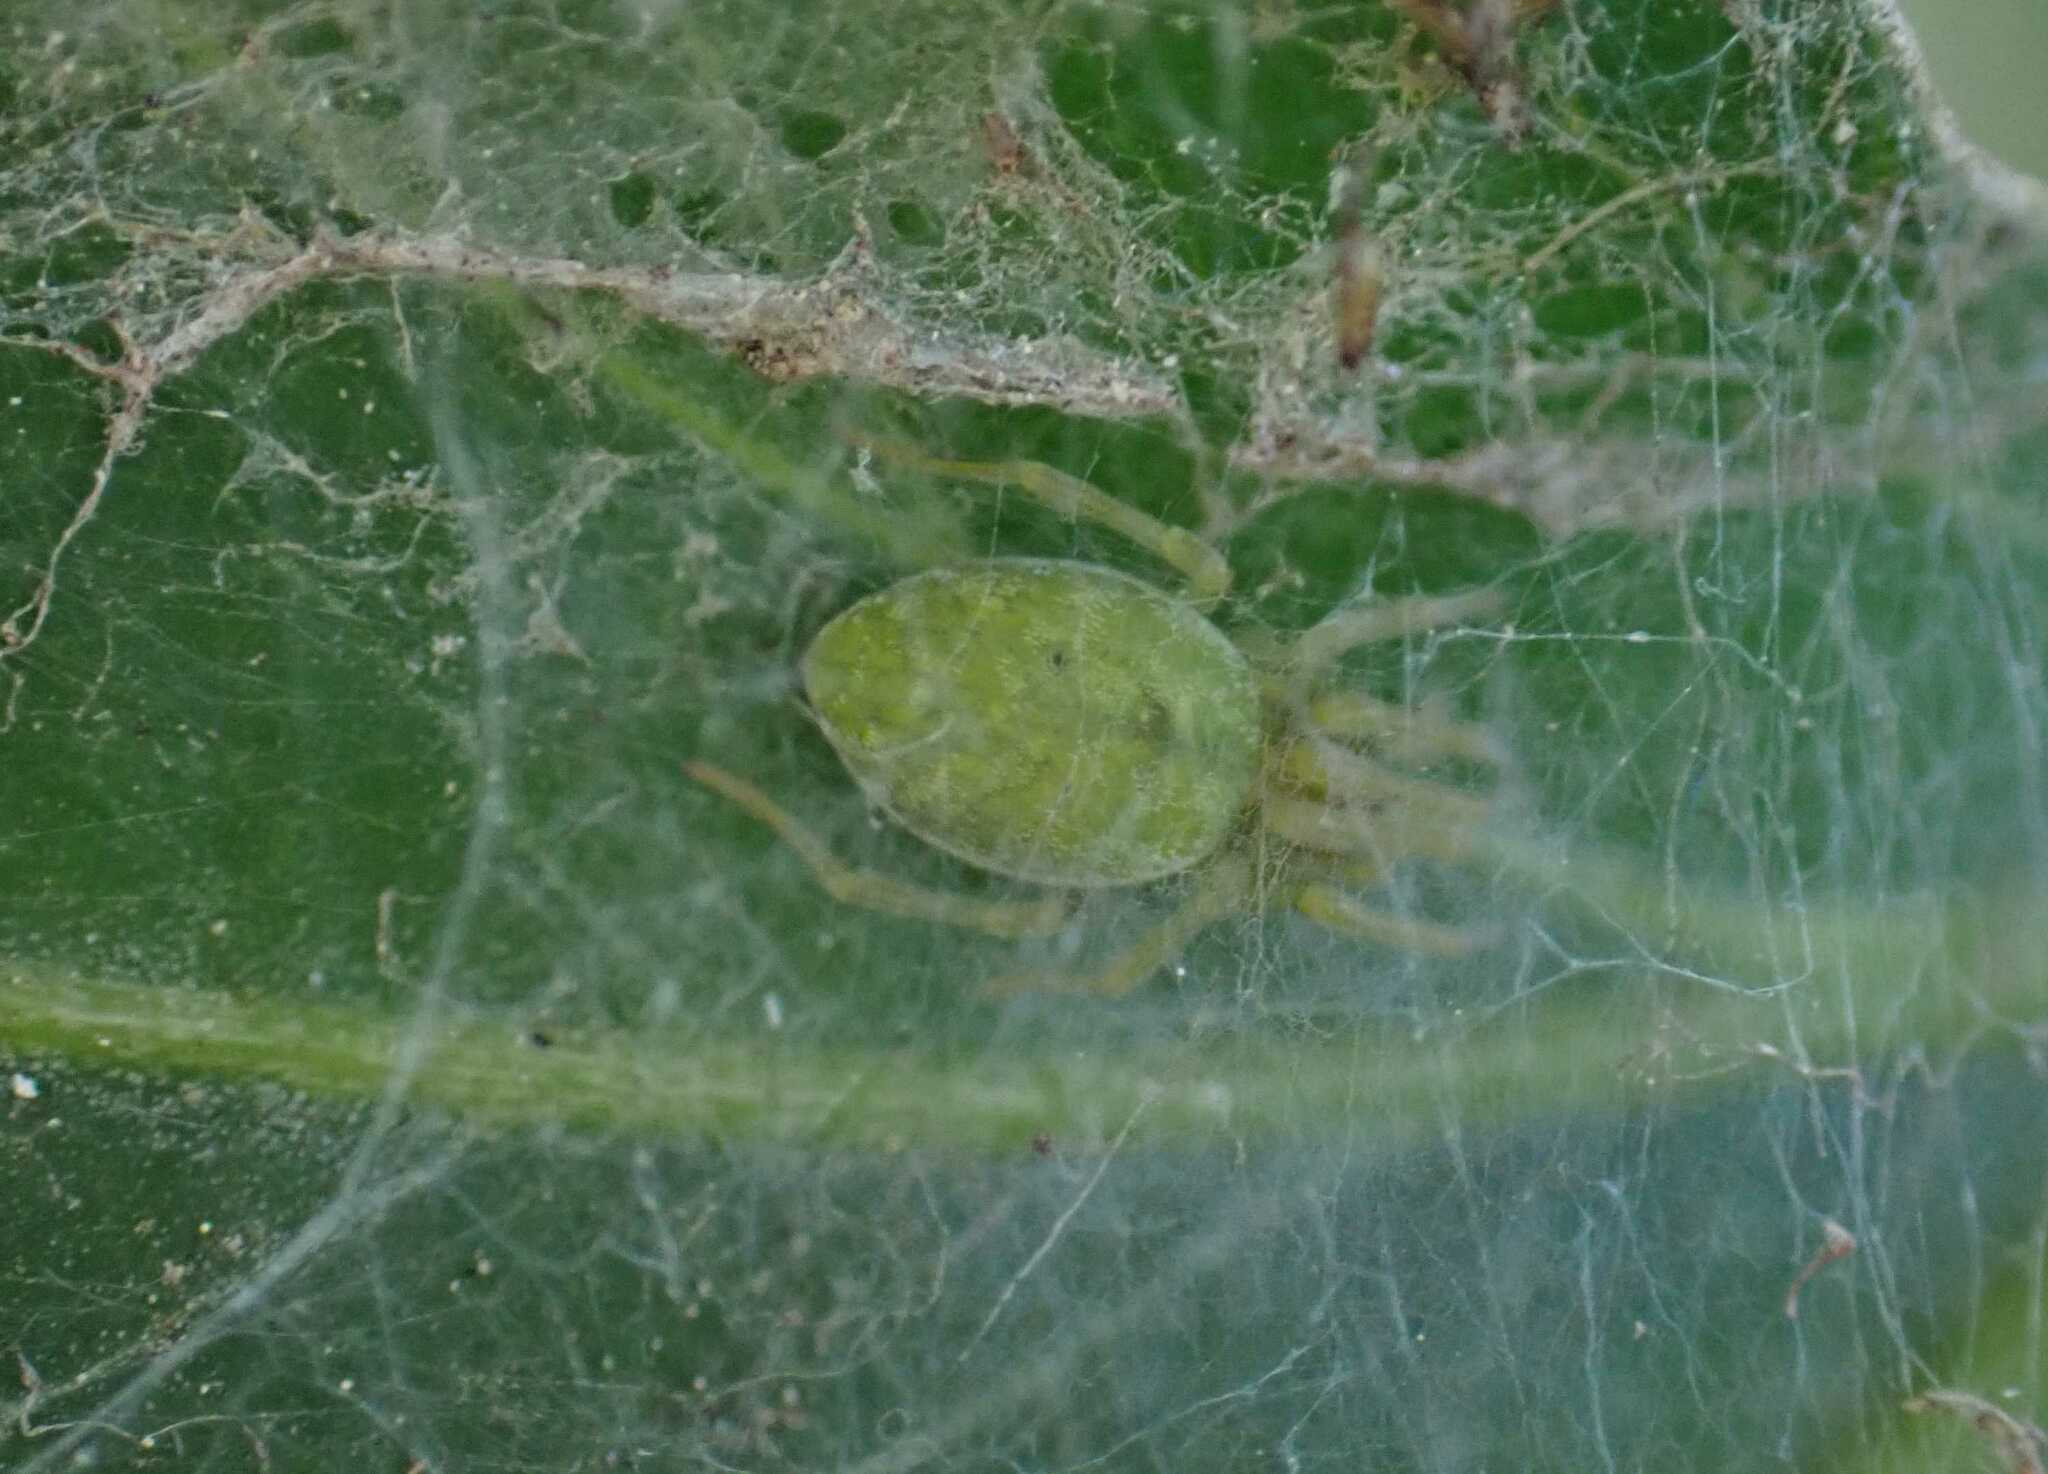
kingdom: Animalia
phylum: Arthropoda
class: Arachnida
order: Araneae
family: Dictynidae
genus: Nigma
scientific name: Nigma walckenaeri
